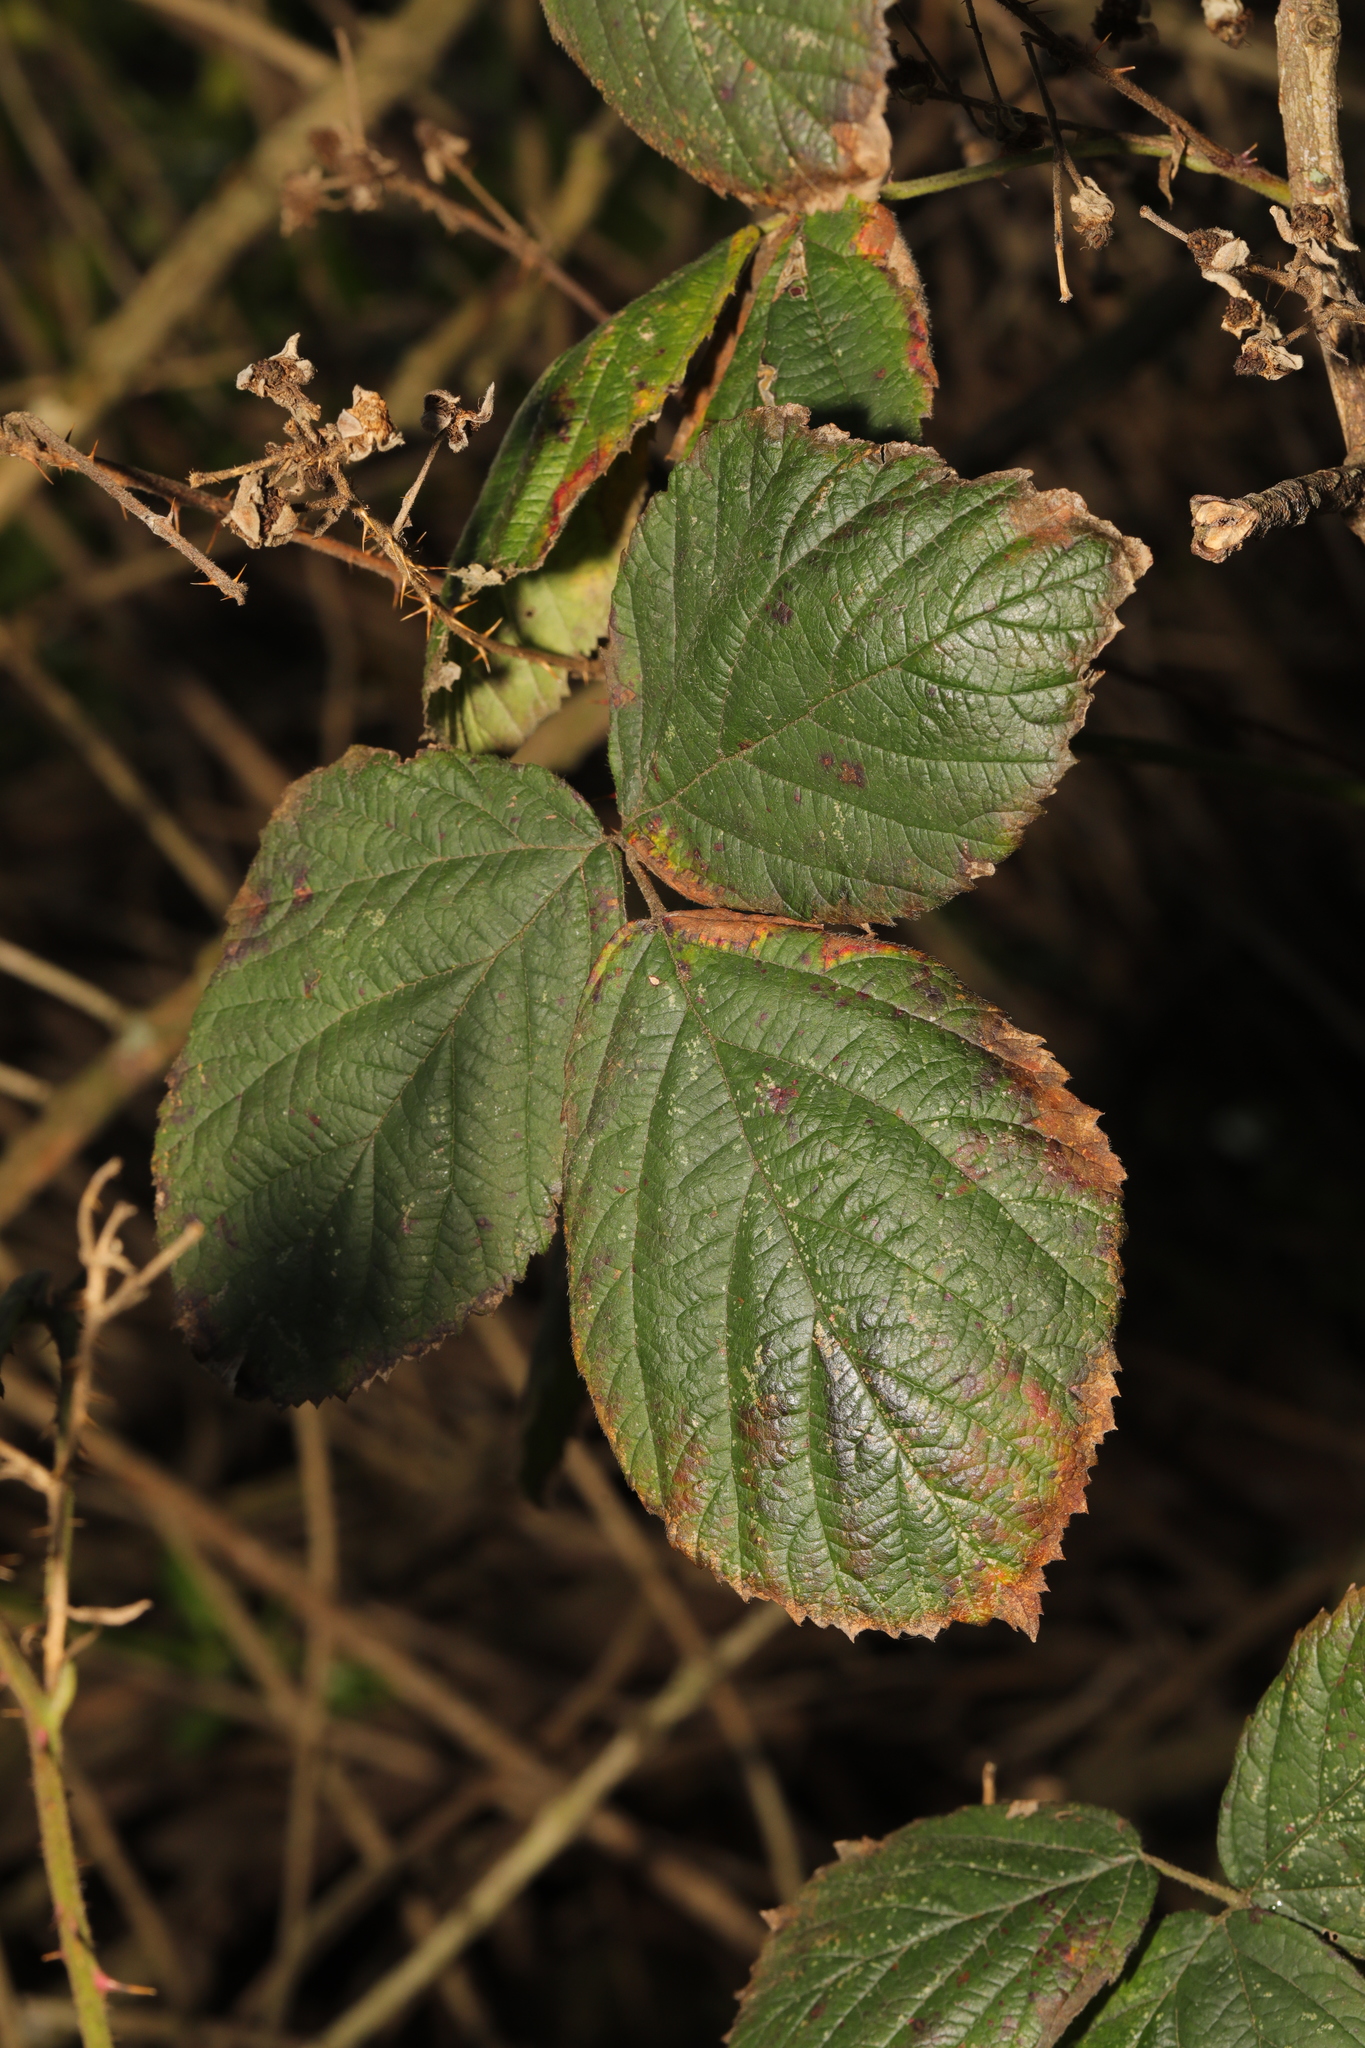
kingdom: Plantae
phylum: Tracheophyta
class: Magnoliopsida
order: Rosales
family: Rosaceae
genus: Rubus
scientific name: Rubus horrefactus
